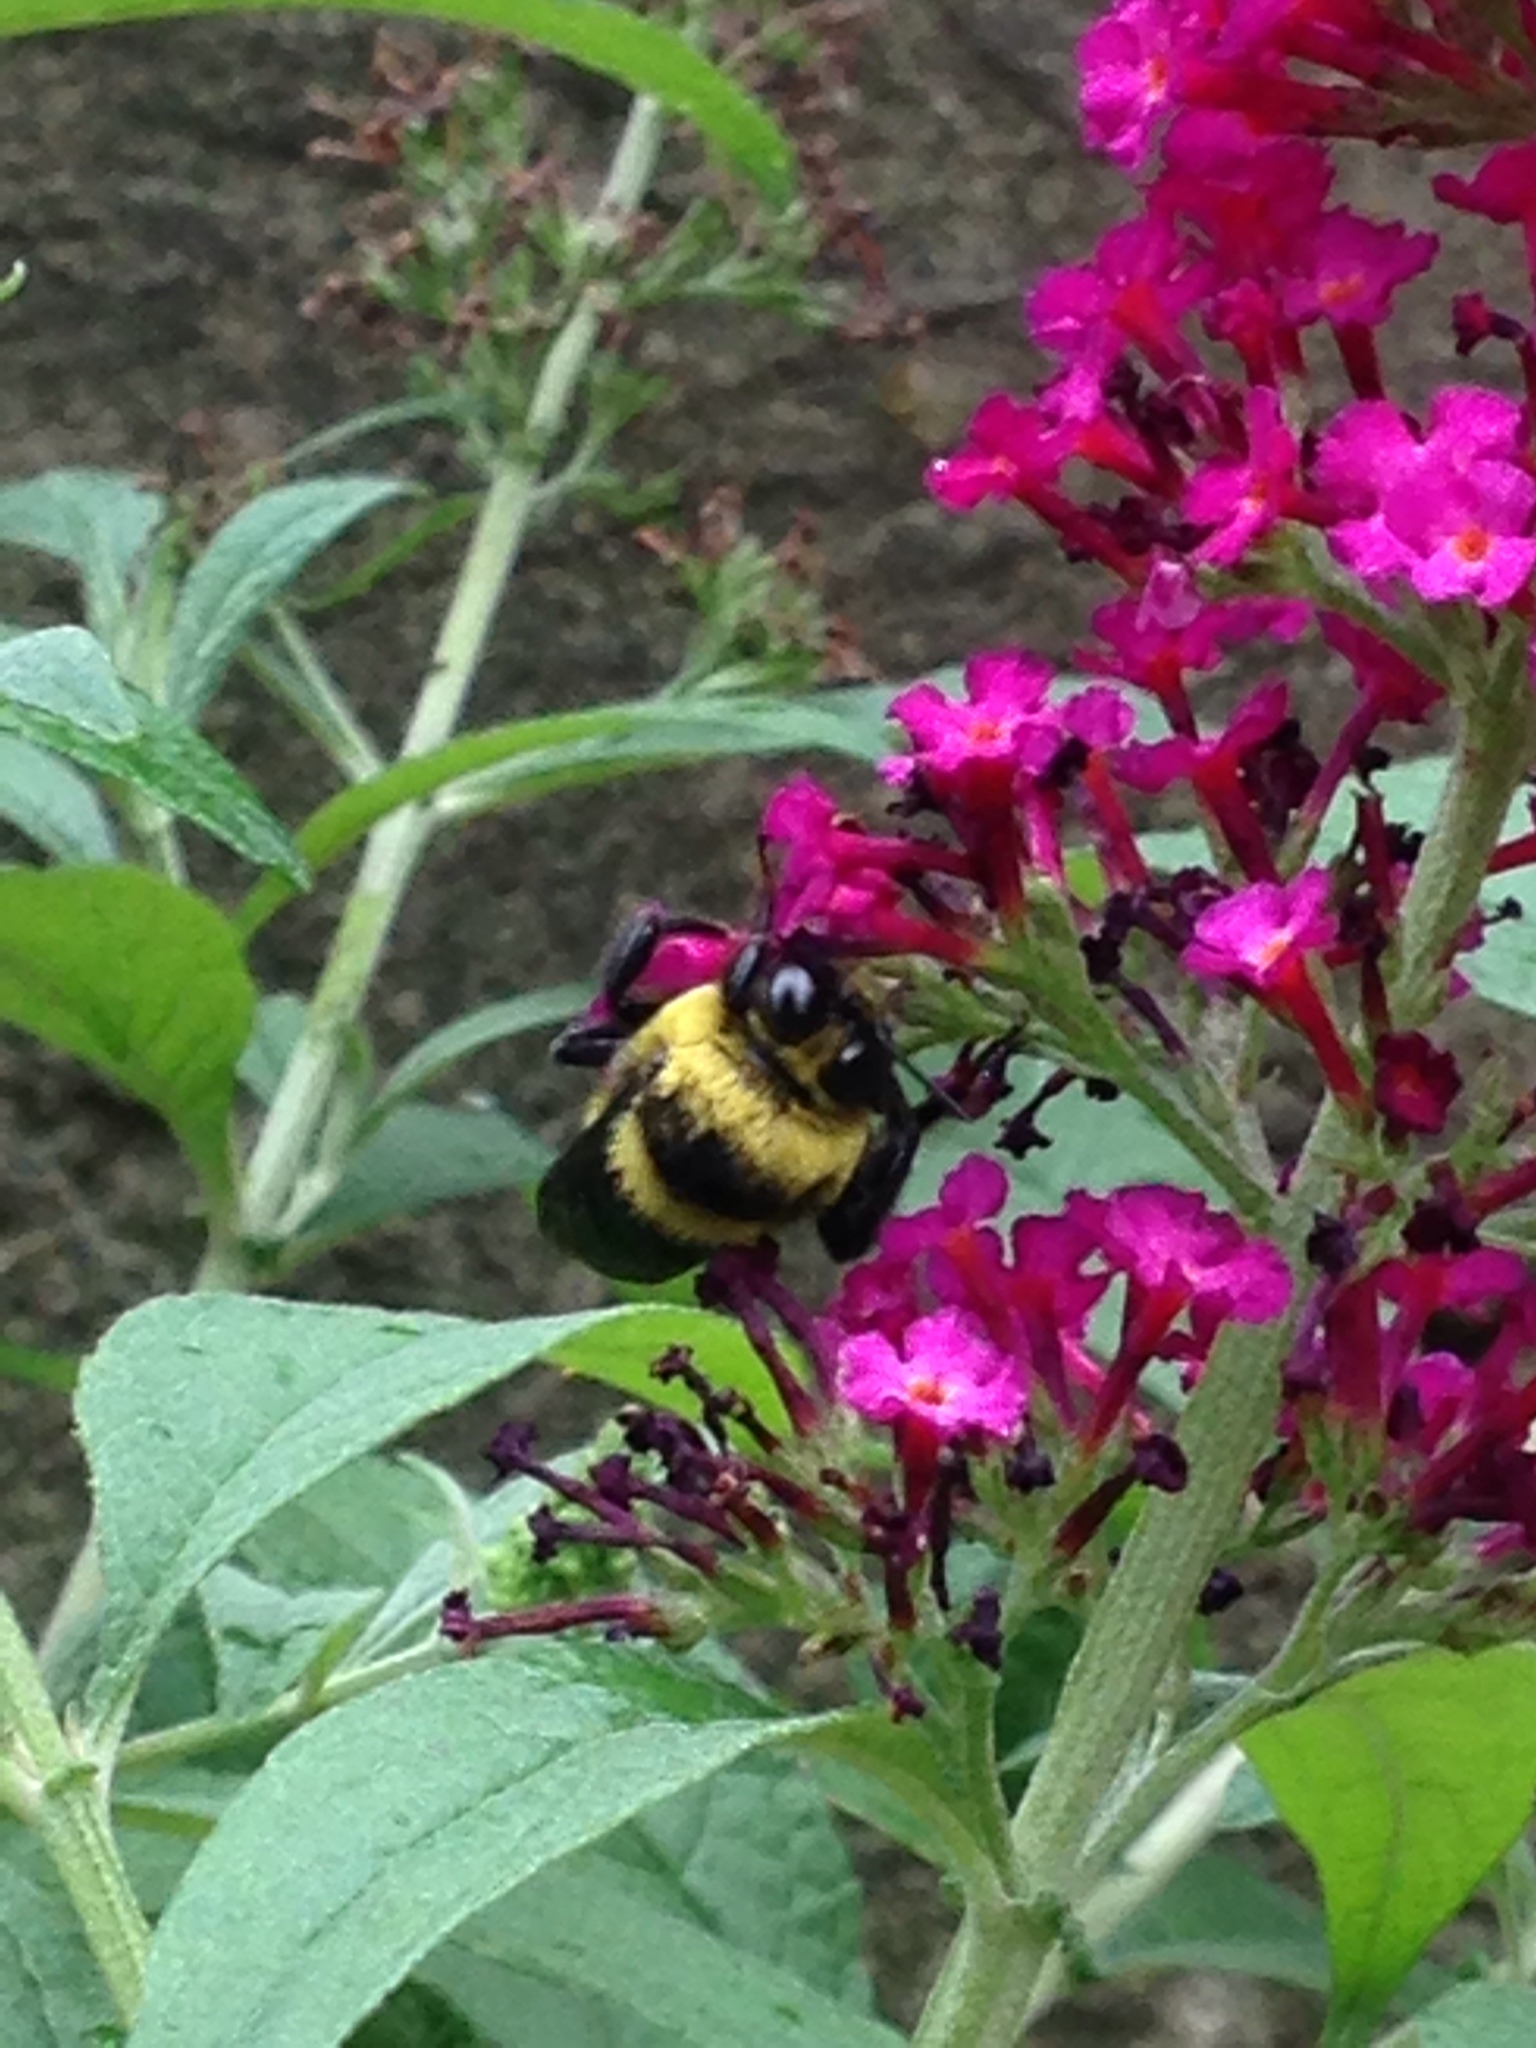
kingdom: Animalia
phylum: Arthropoda
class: Insecta
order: Hymenoptera
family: Apidae
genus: Bombus
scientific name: Bombus auricomus
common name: Black and gold bumble bee
